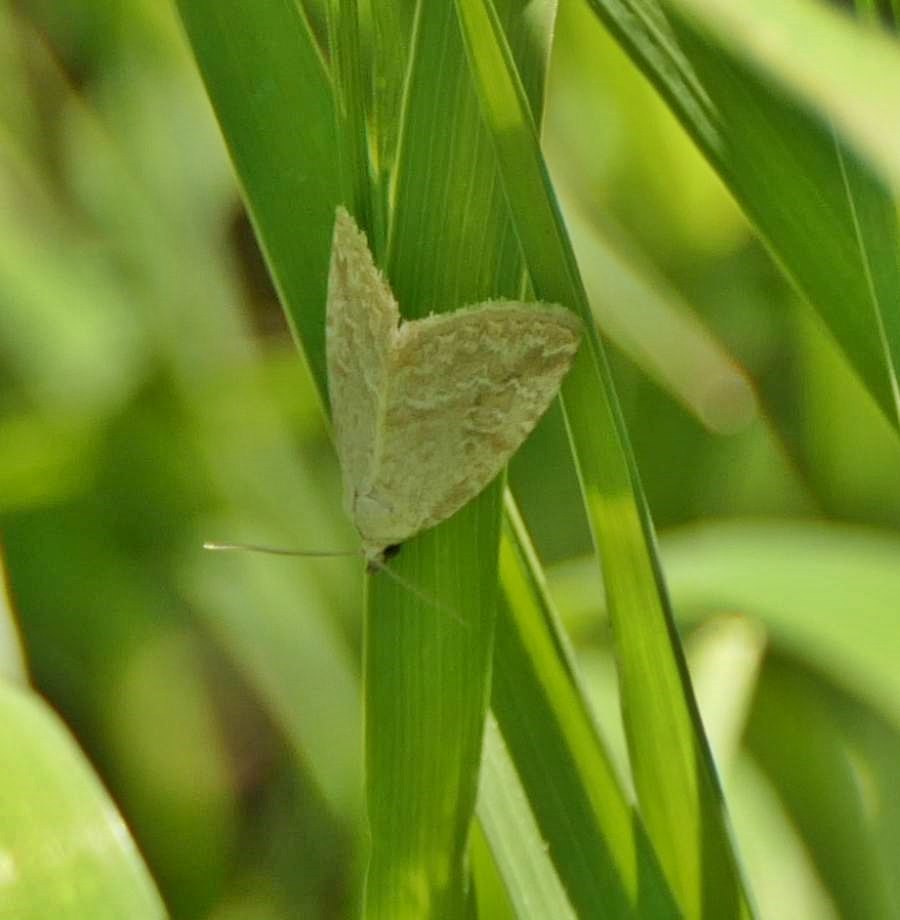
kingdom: Animalia
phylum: Arthropoda
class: Insecta
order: Lepidoptera
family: Noctuidae
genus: Protodeltote
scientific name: Protodeltote albidula
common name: Pale glyph
